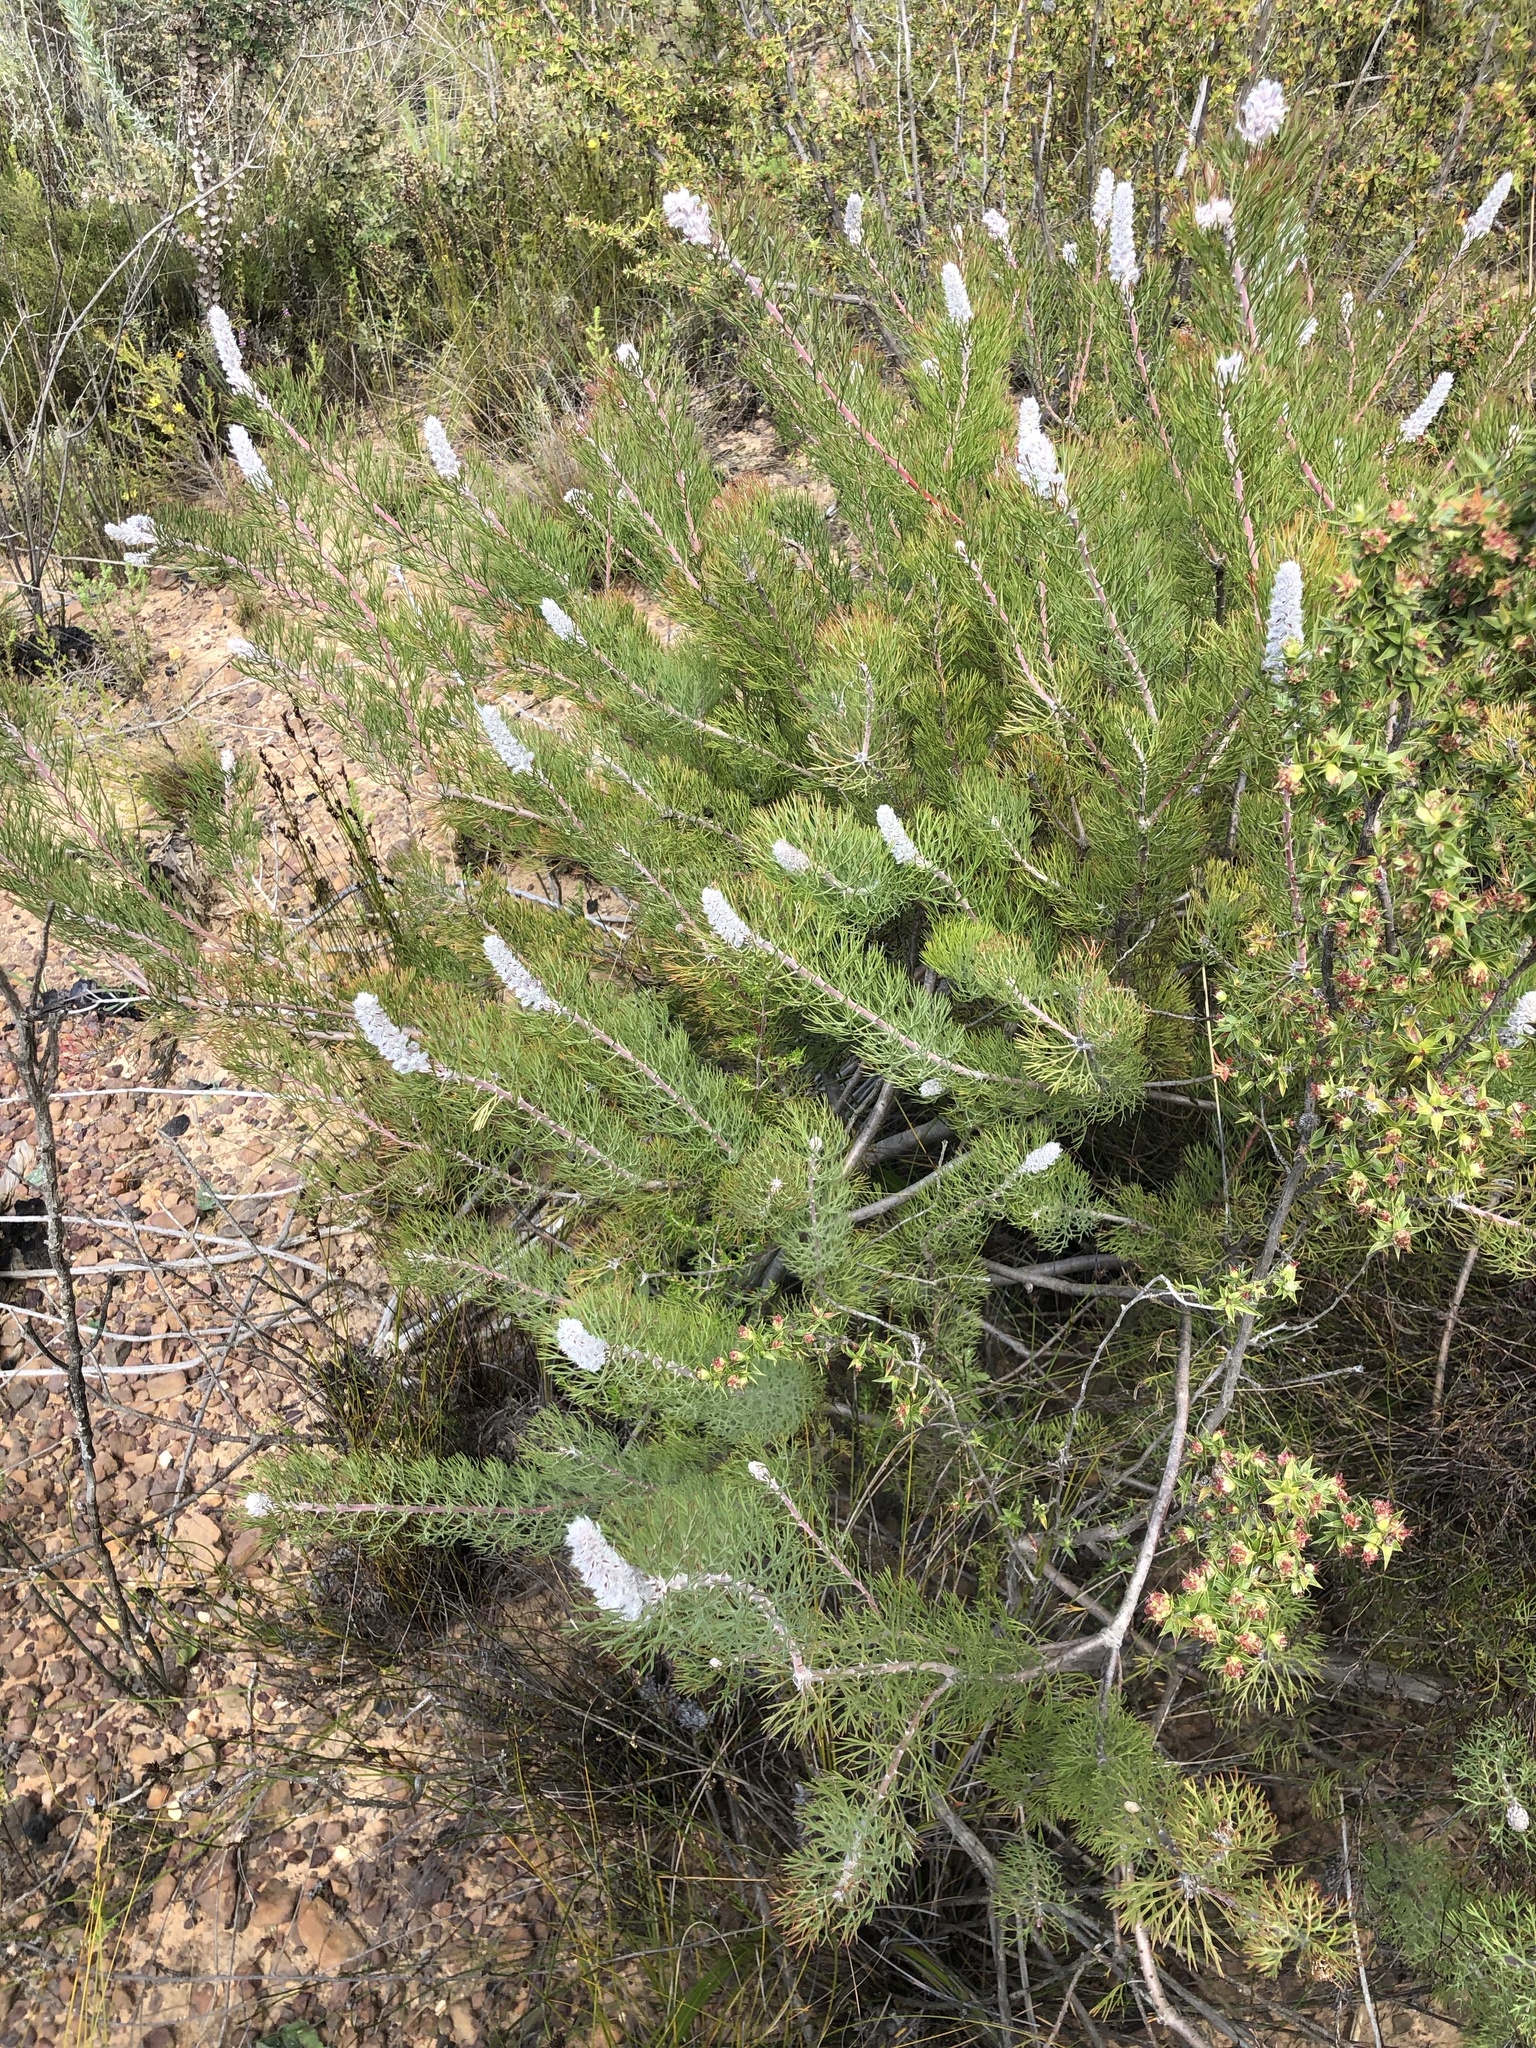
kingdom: Plantae
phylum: Tracheophyta
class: Magnoliopsida
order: Proteales
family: Proteaceae
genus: Paranomus
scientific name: Paranomus lagopus
